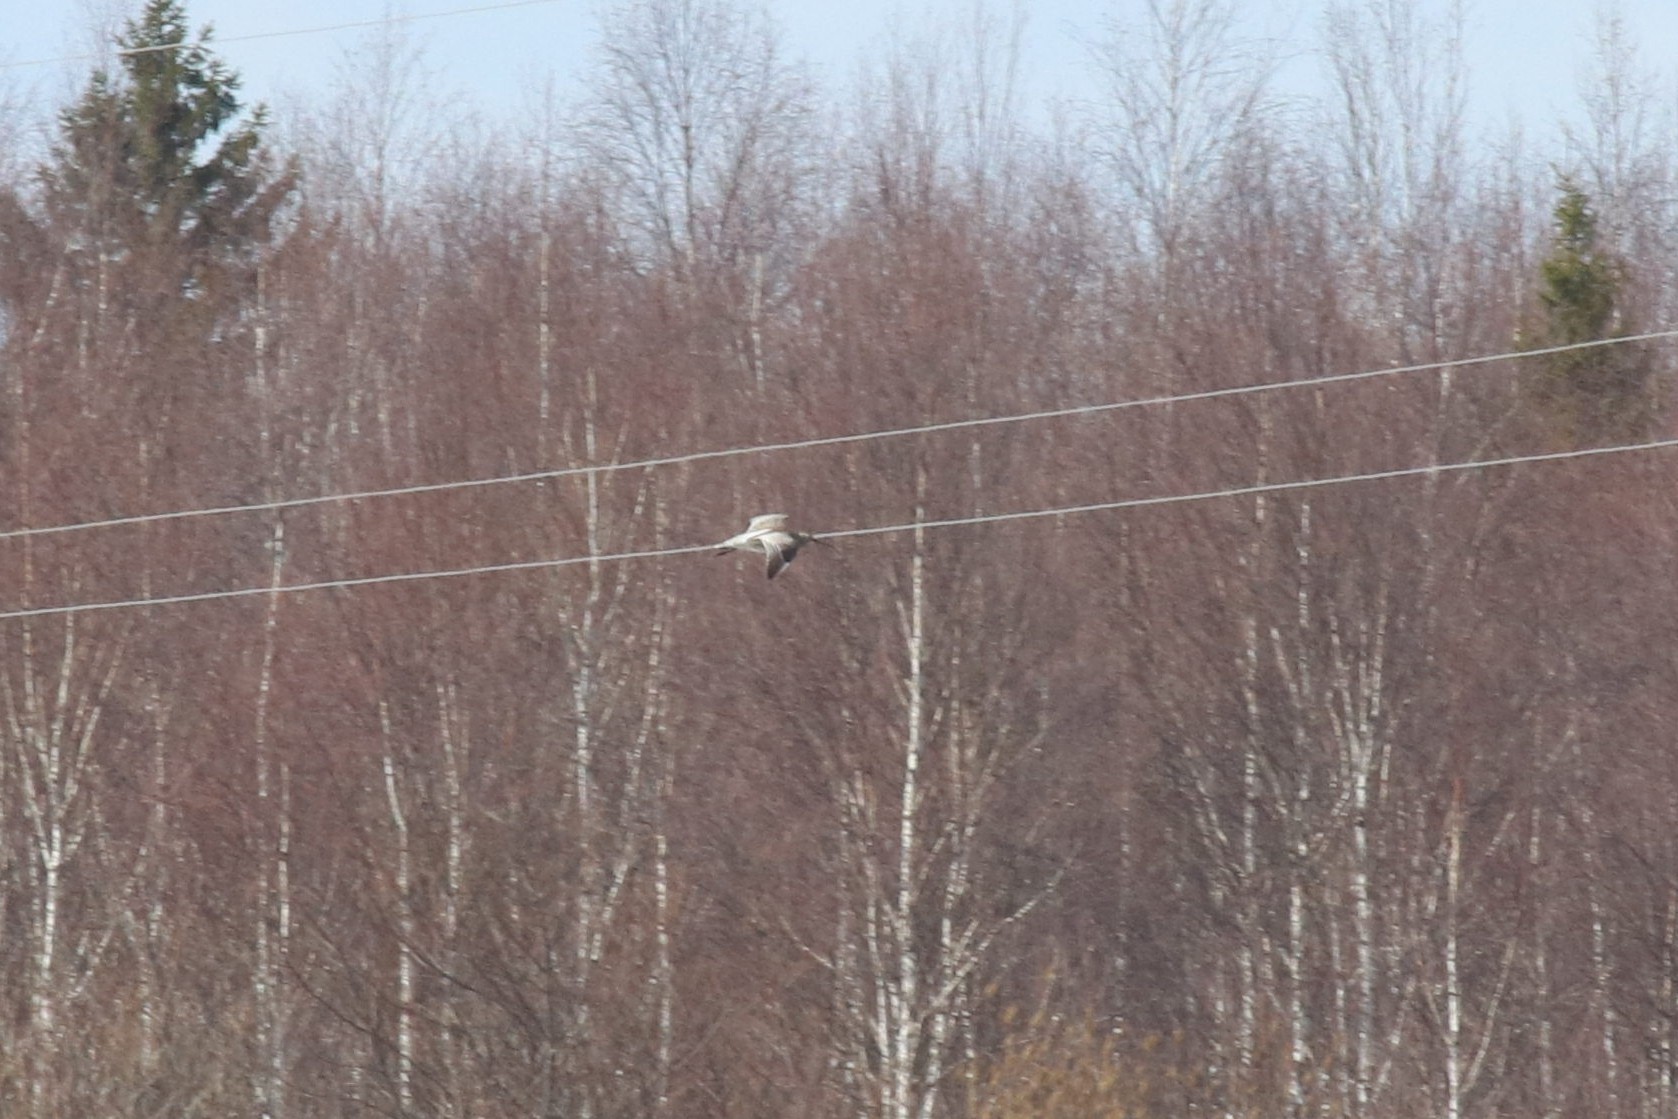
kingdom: Animalia
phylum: Chordata
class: Aves
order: Charadriiformes
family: Scolopacidae
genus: Numenius
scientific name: Numenius arquata
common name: Eurasian curlew
